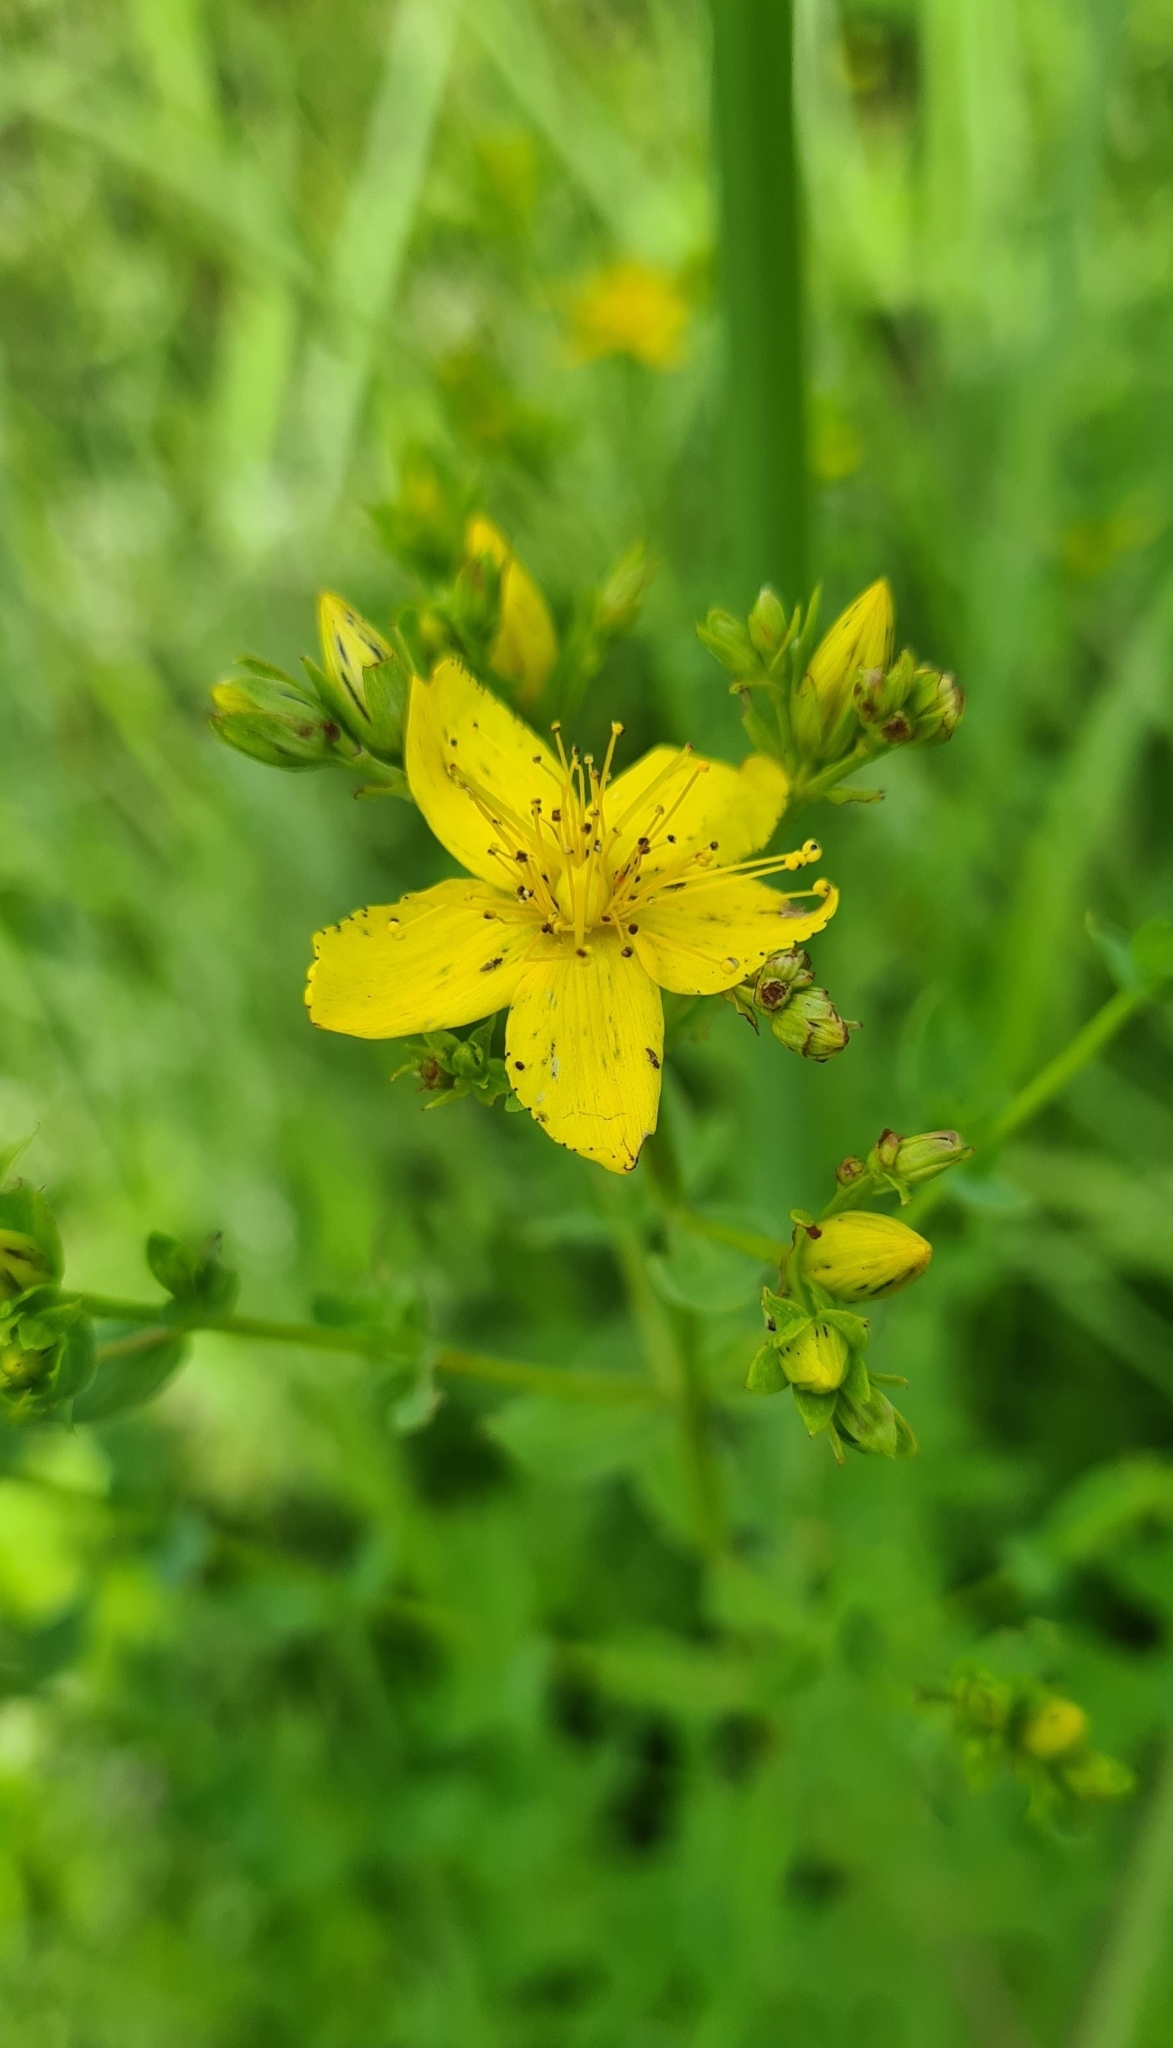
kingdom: Plantae
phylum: Tracheophyta
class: Magnoliopsida
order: Malpighiales
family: Hypericaceae
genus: Hypericum
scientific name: Hypericum perforatum
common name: Common st. johnswort
